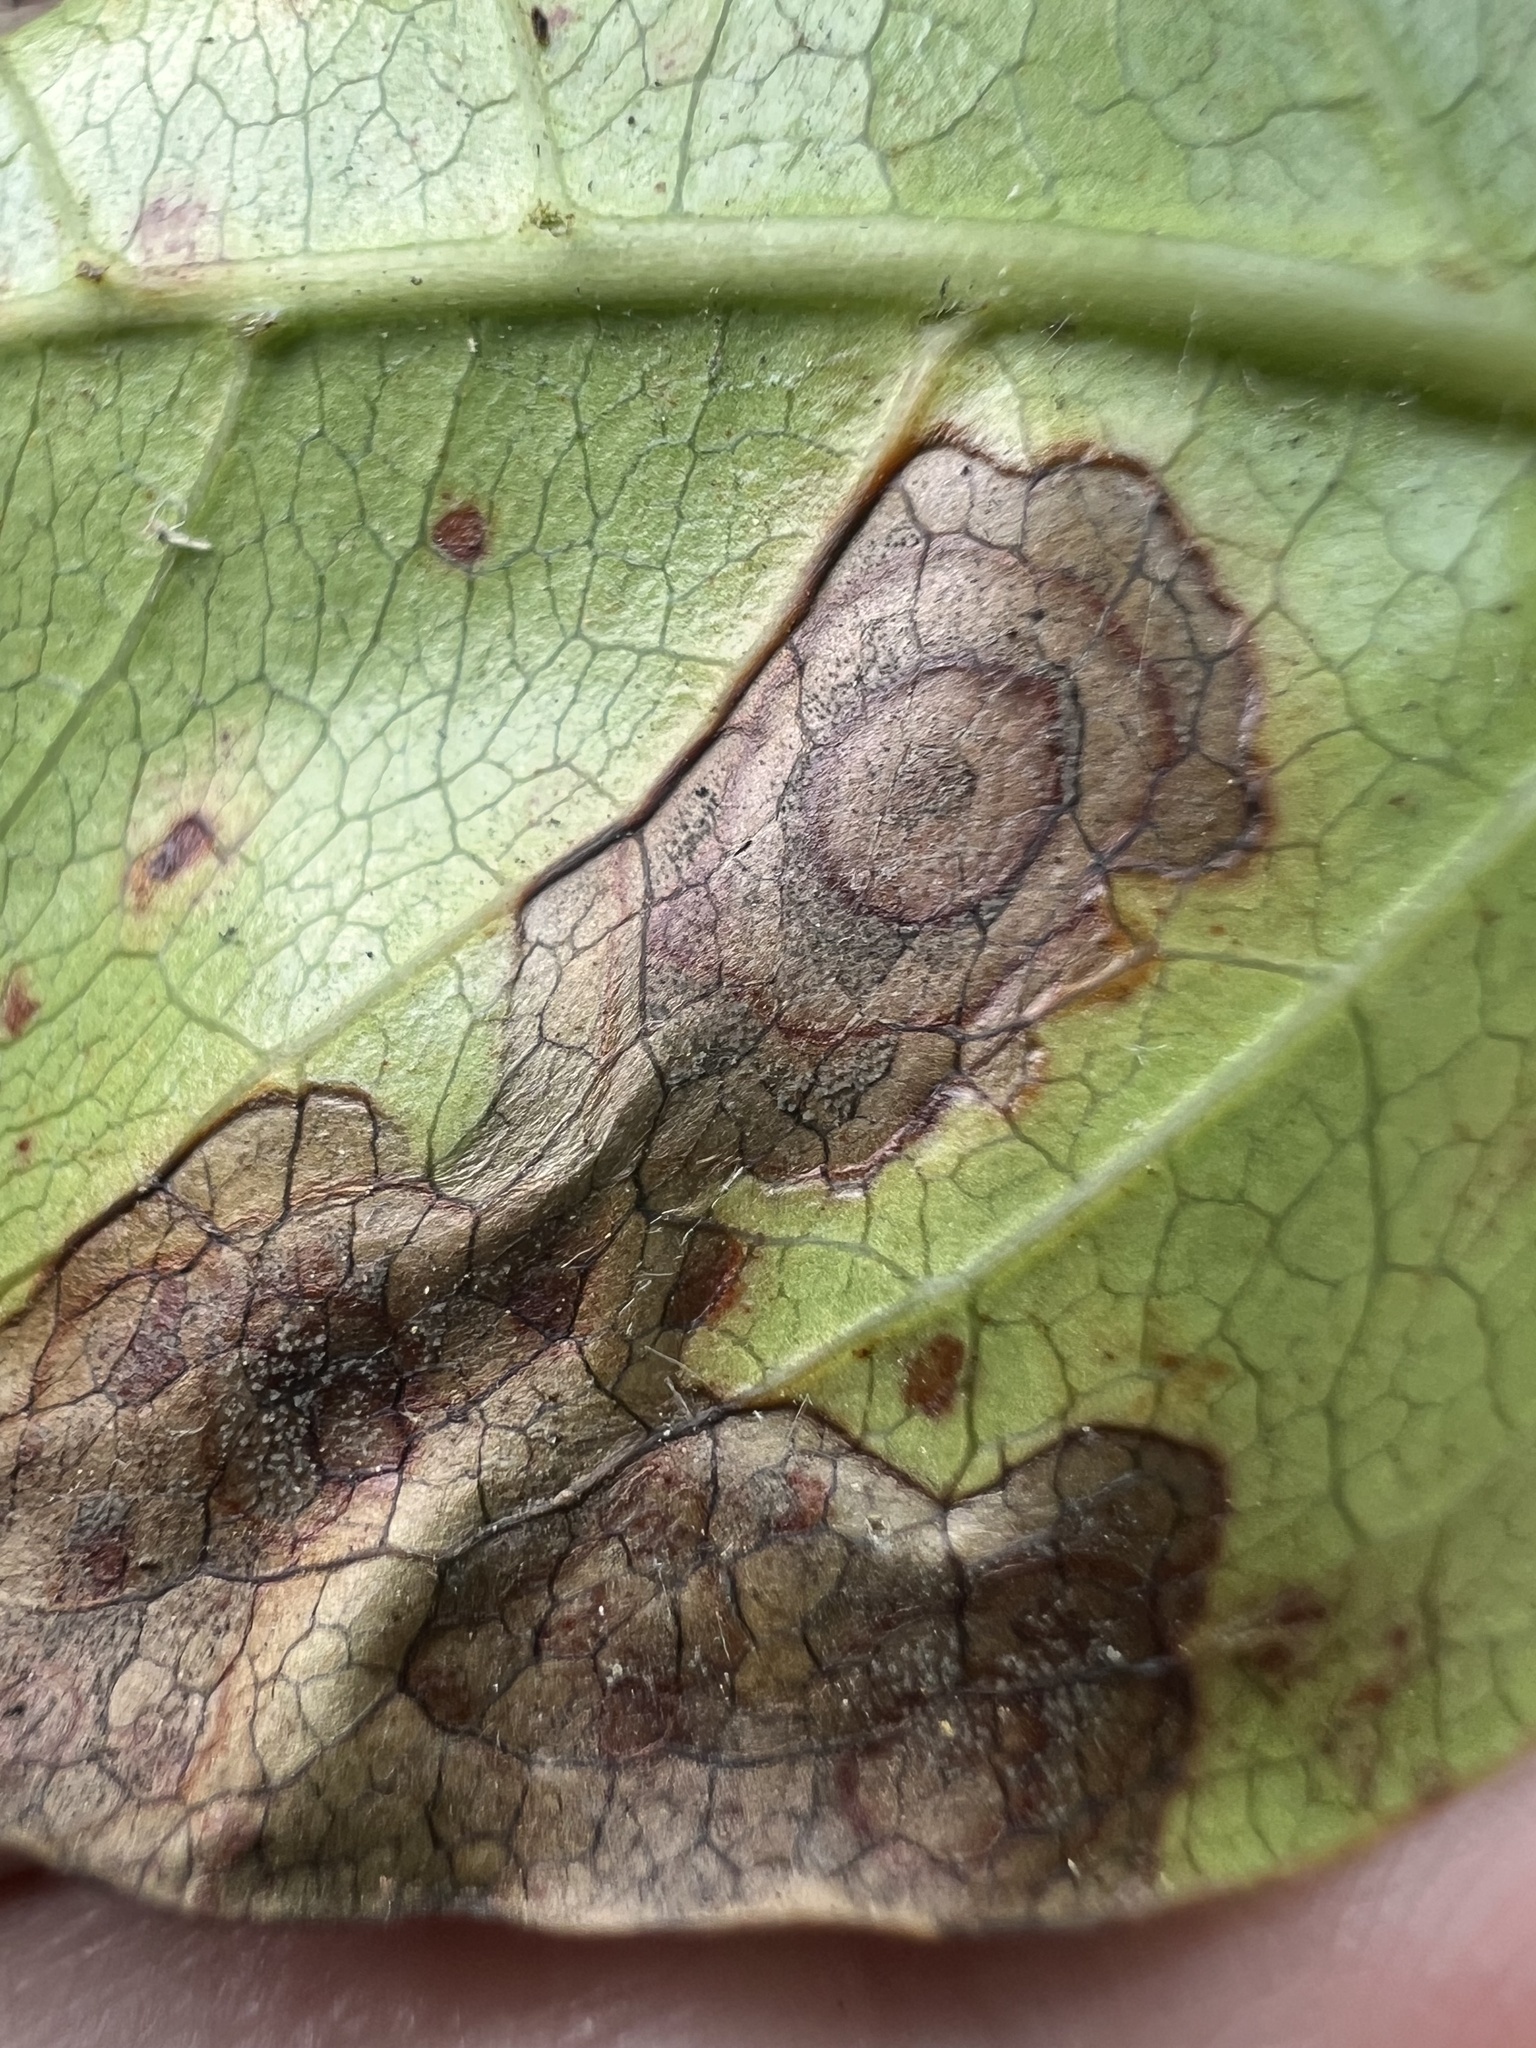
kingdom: Plantae
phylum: Tracheophyta
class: Magnoliopsida
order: Gentianales
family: Rubiaceae
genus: Coprosma
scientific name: Coprosma macrocarpa
